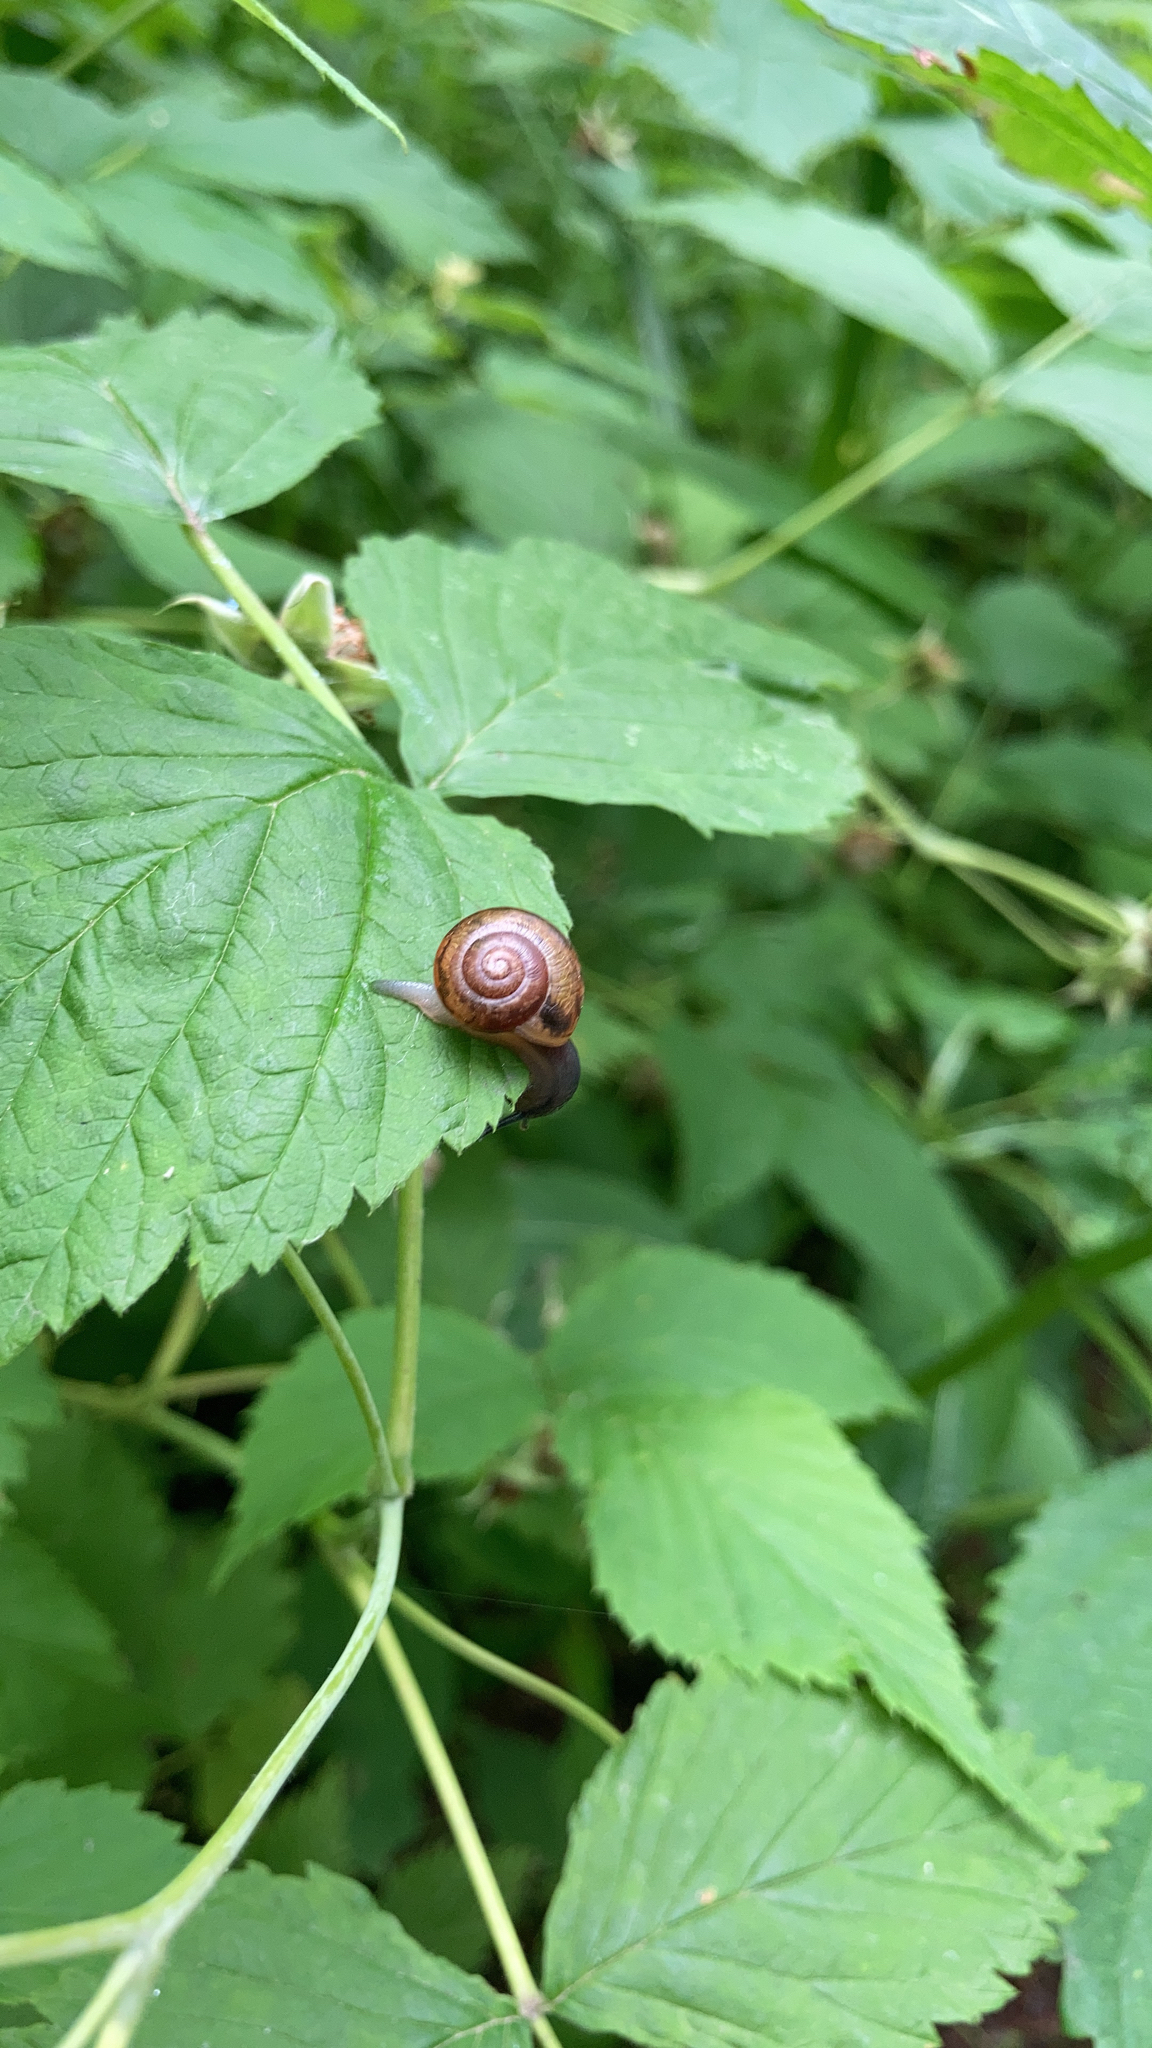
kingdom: Animalia
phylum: Mollusca
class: Gastropoda
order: Stylommatophora
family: Helicidae
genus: Arianta
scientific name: Arianta arbustorum
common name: Copse snail
